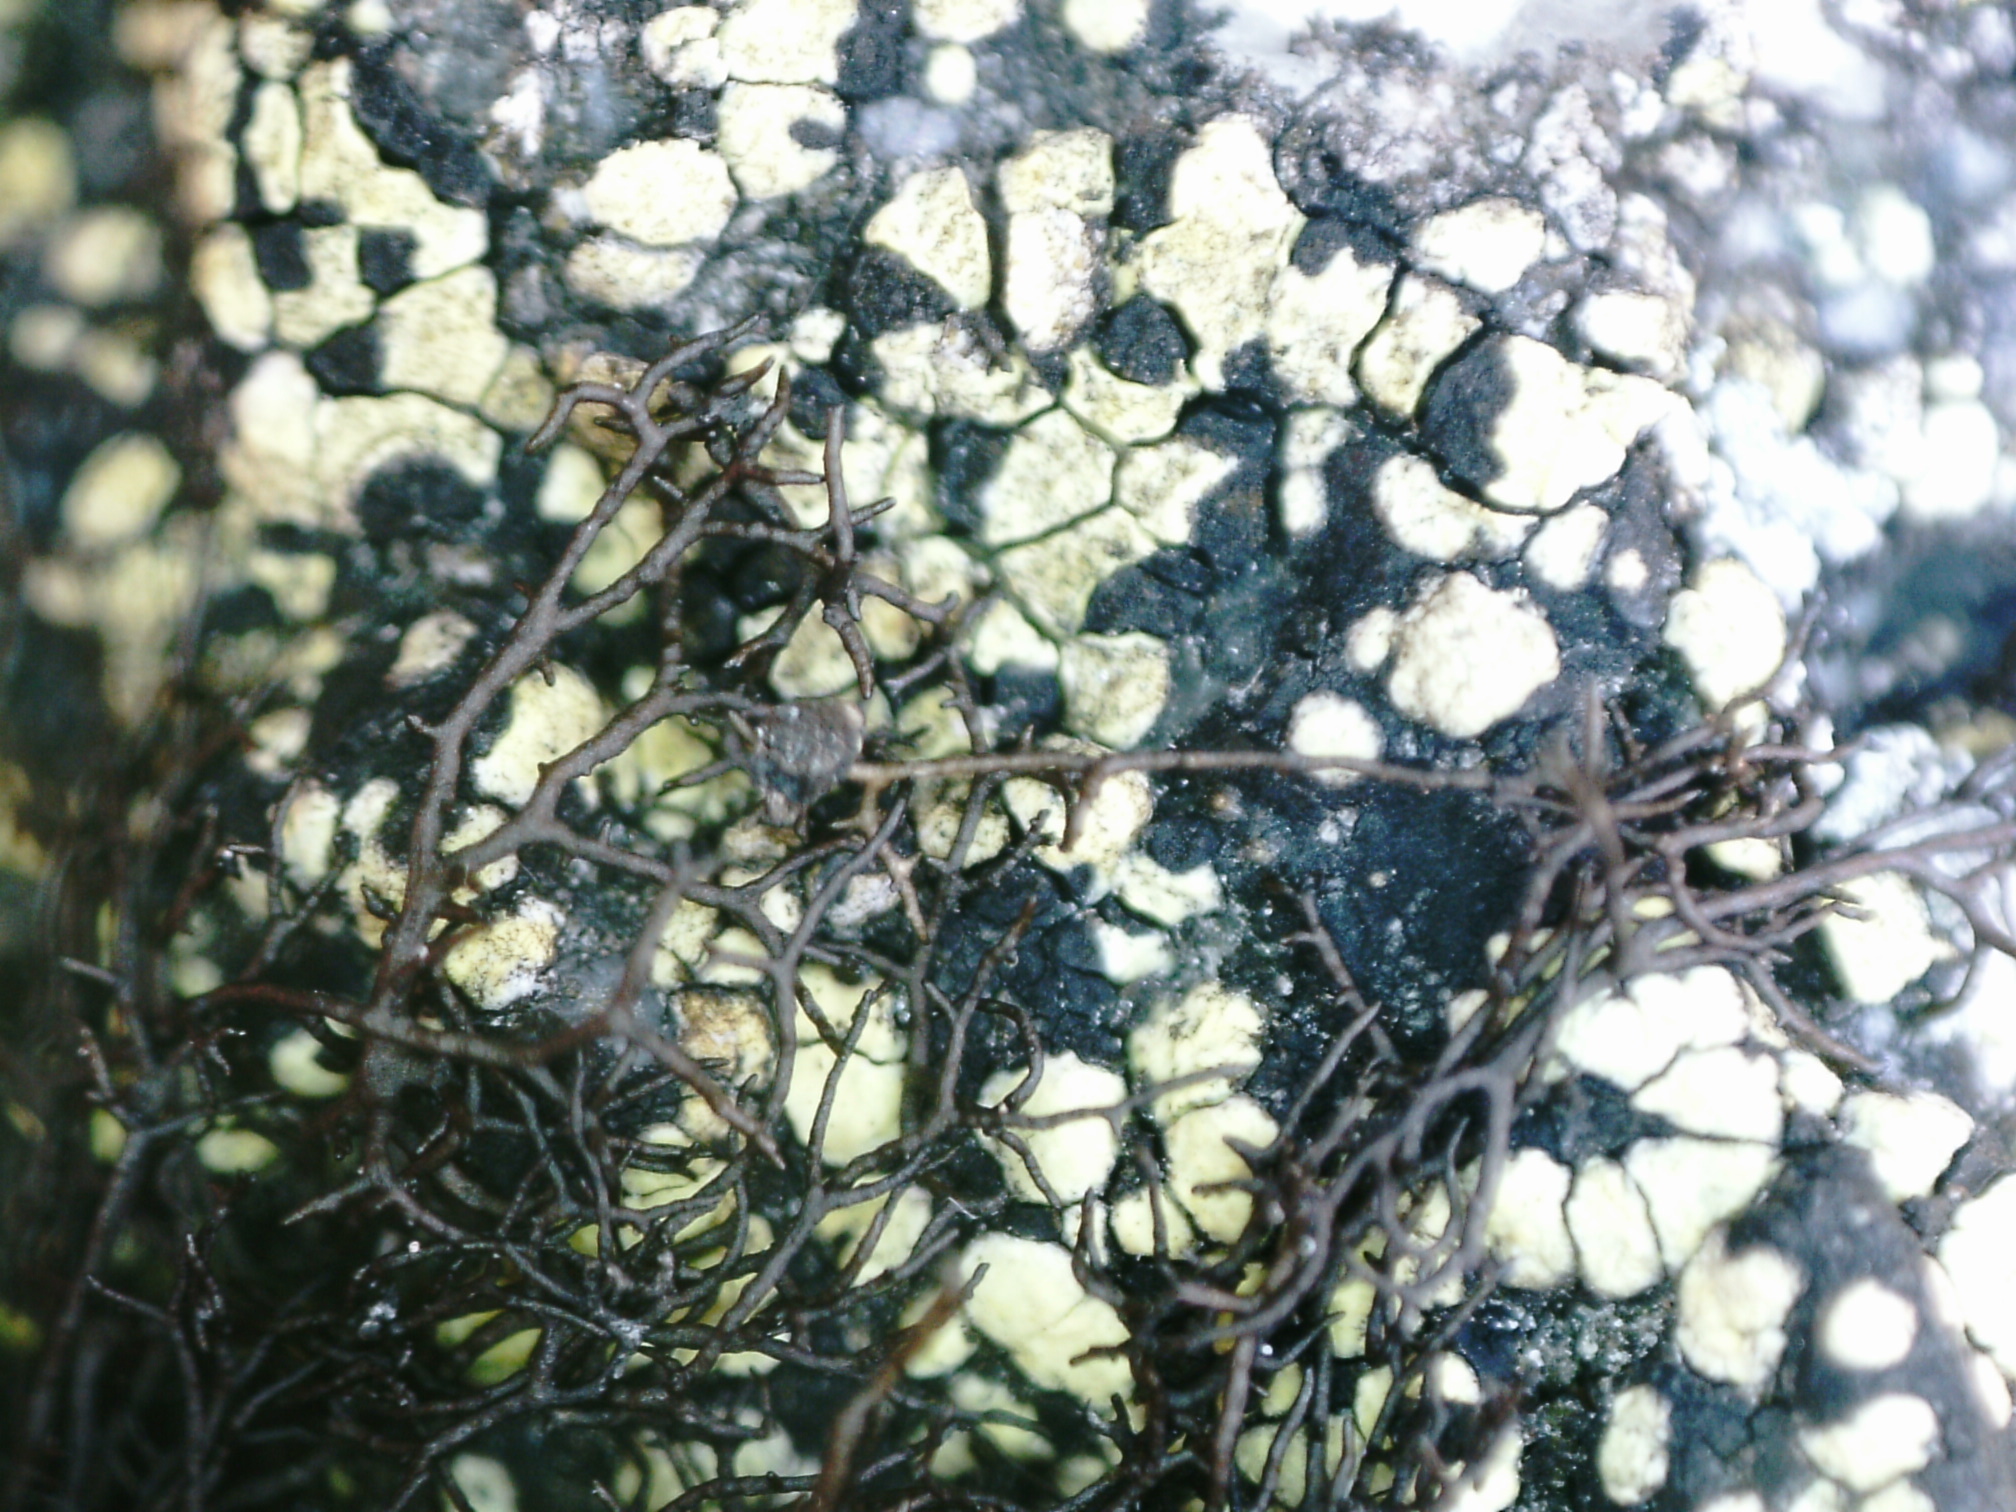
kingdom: Fungi
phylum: Ascomycota
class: Lecanoromycetes
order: Lecanorales
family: Parmeliaceae
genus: Pseudephebe
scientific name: Pseudephebe pubescens
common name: Fine rockwool lichen
